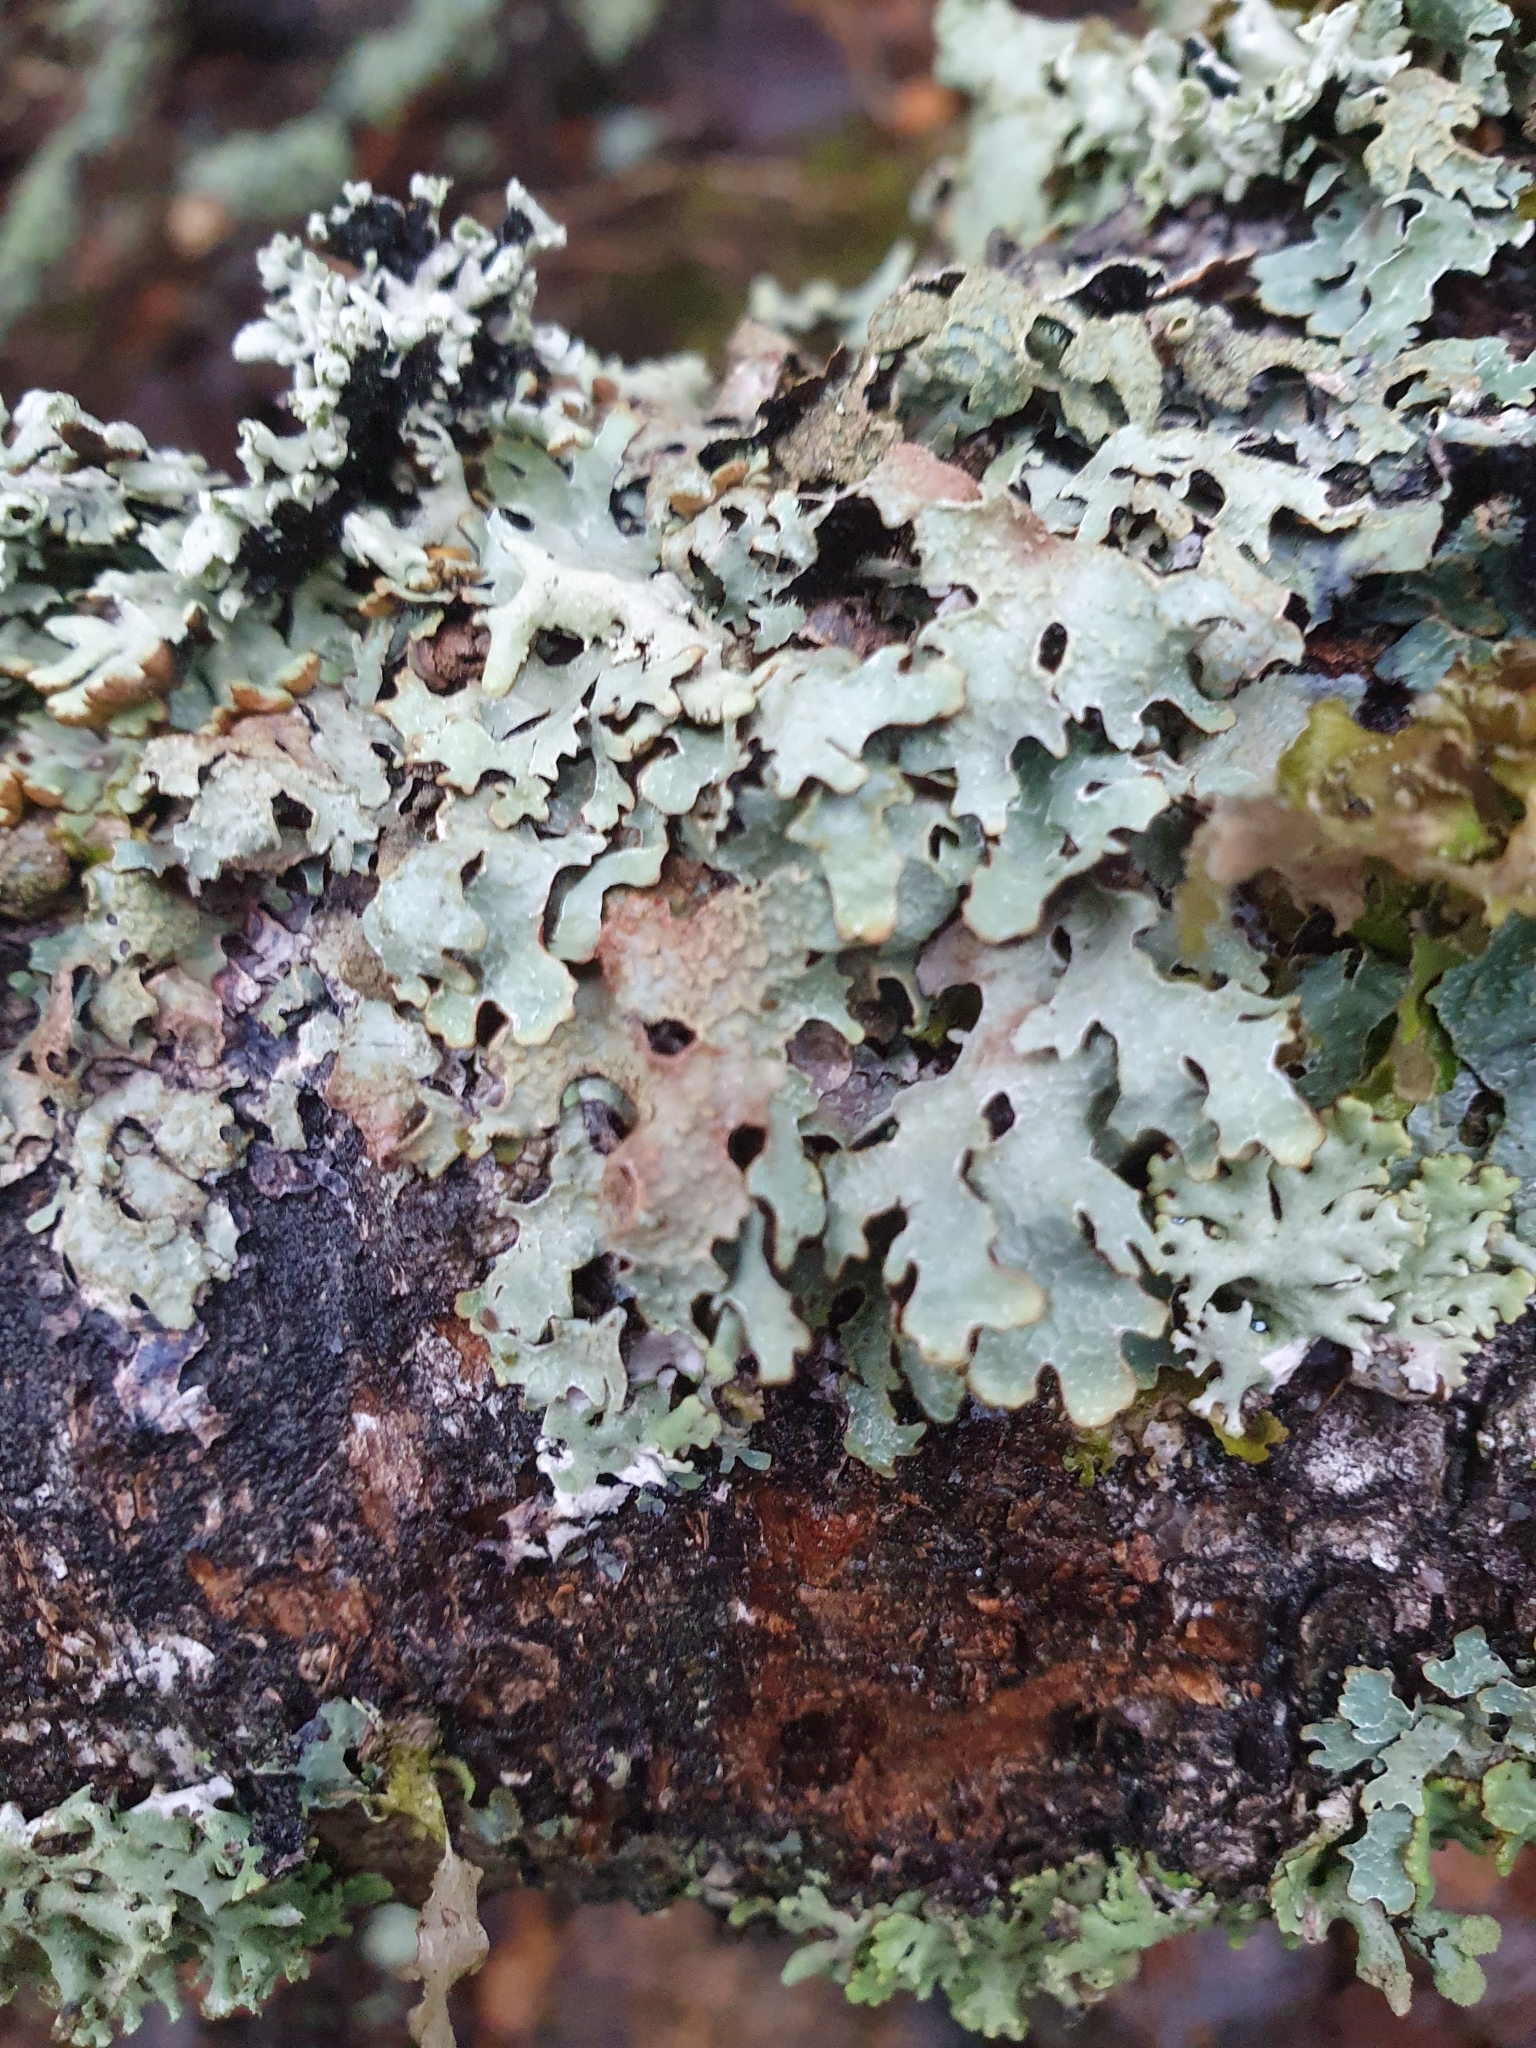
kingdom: Fungi
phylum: Ascomycota
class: Lecanoromycetes
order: Lecanorales
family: Parmeliaceae
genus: Parmelia
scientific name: Parmelia sulcata
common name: Netted shield lichen
